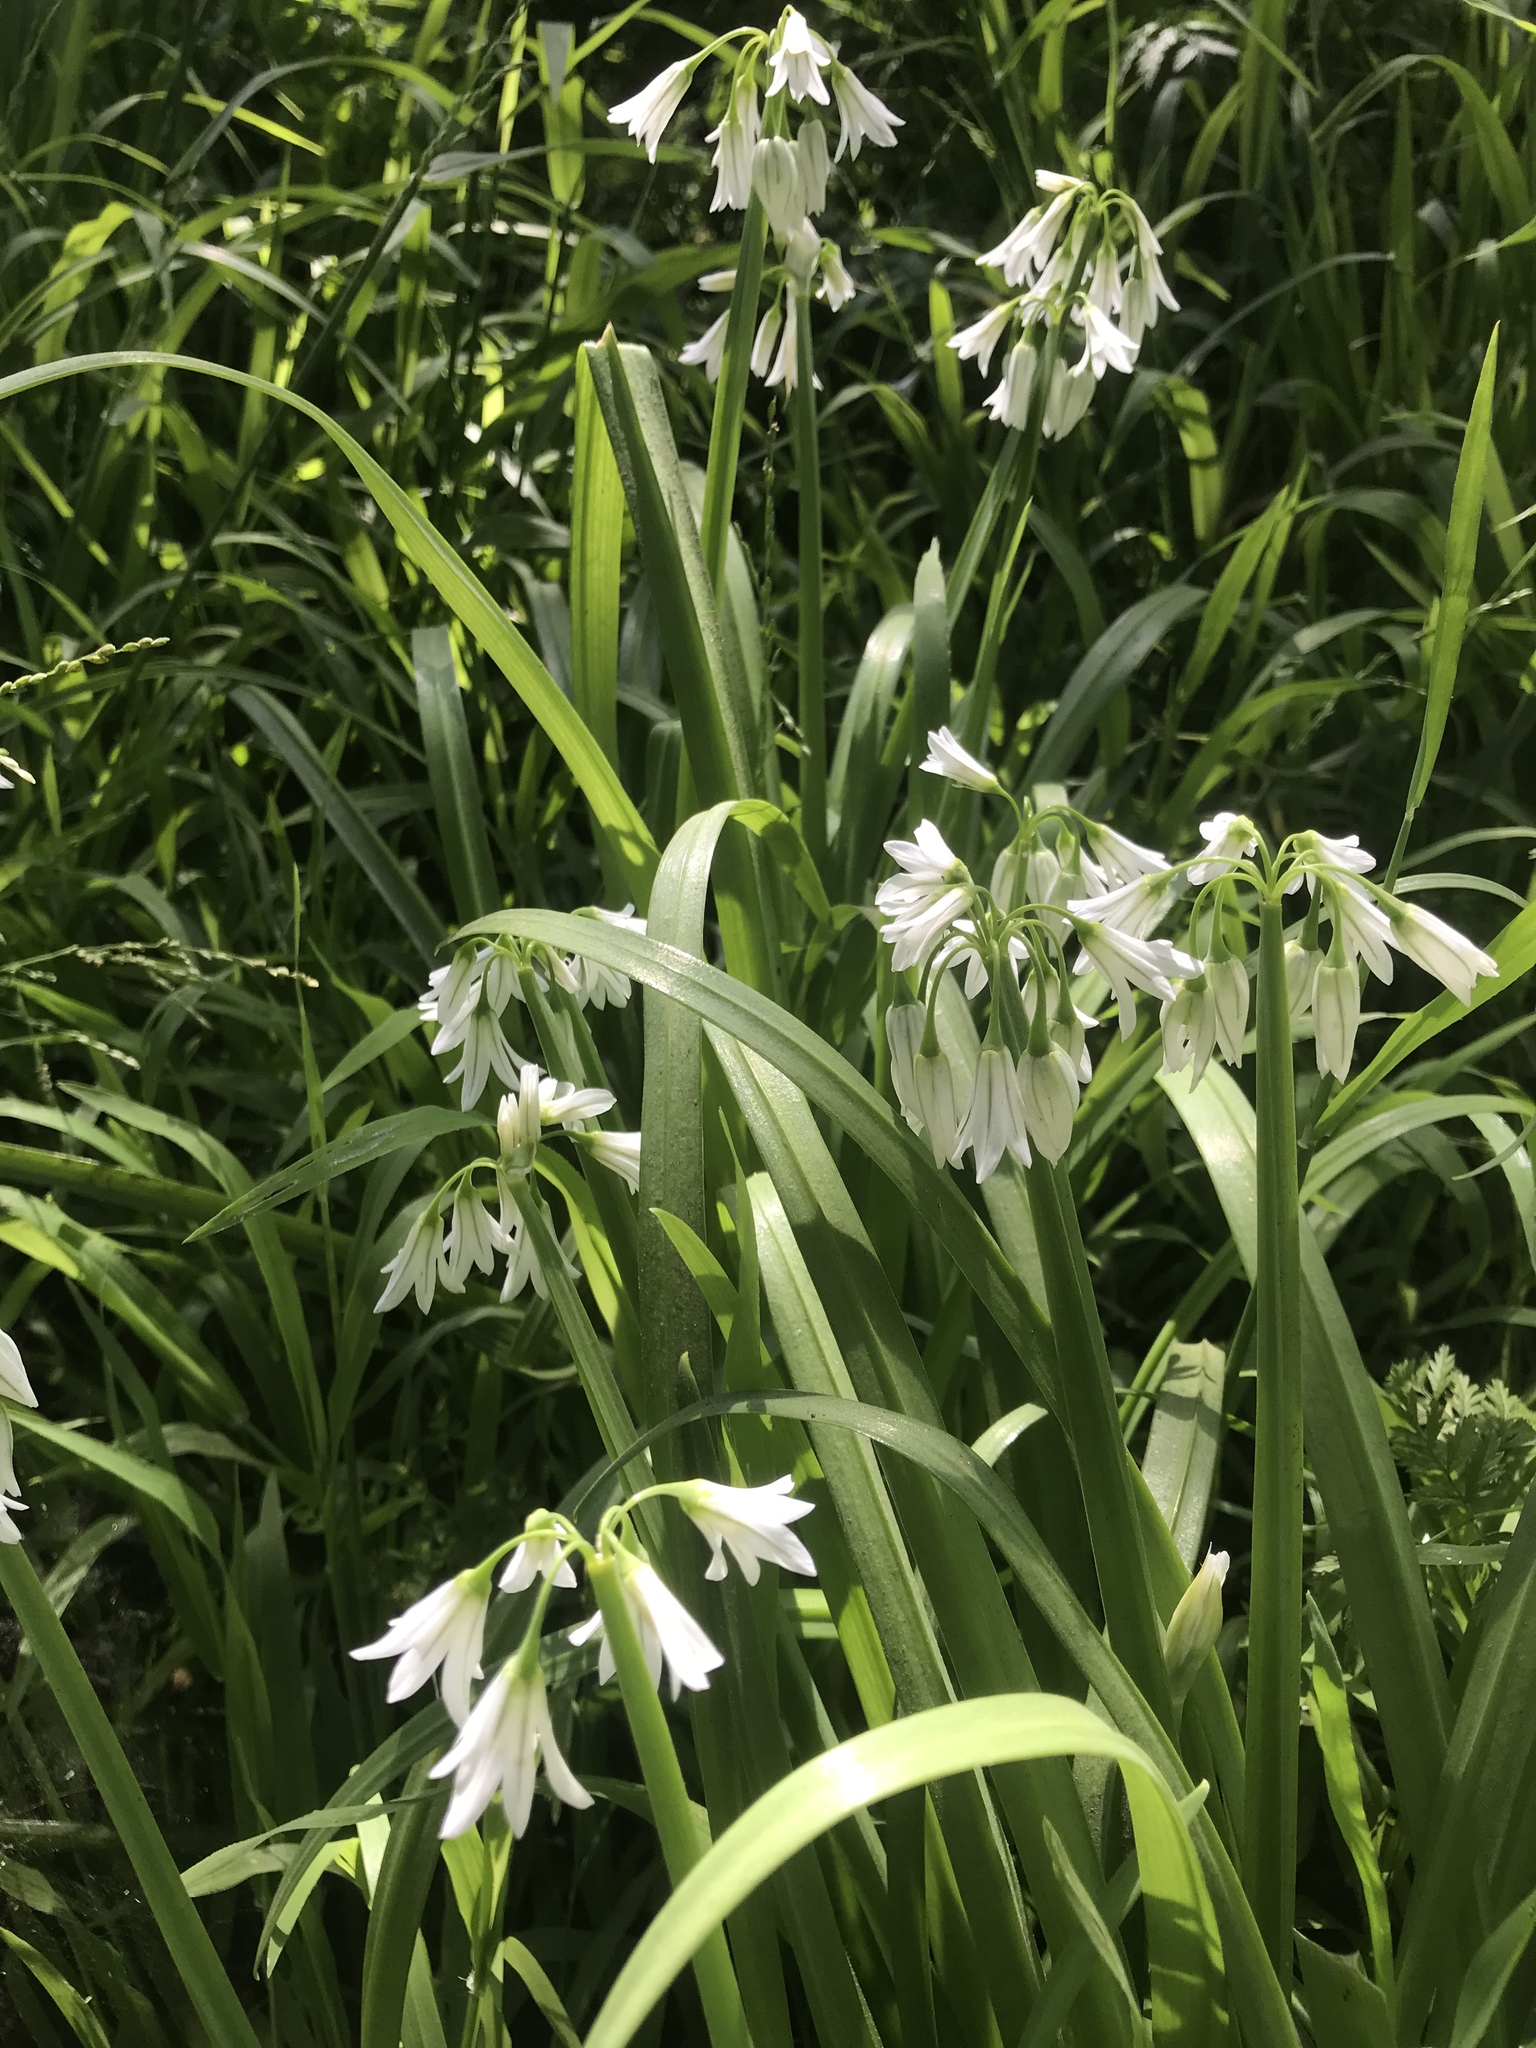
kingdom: Plantae
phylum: Tracheophyta
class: Liliopsida
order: Asparagales
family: Amaryllidaceae
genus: Allium
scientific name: Allium triquetrum
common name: Three-cornered garlic
